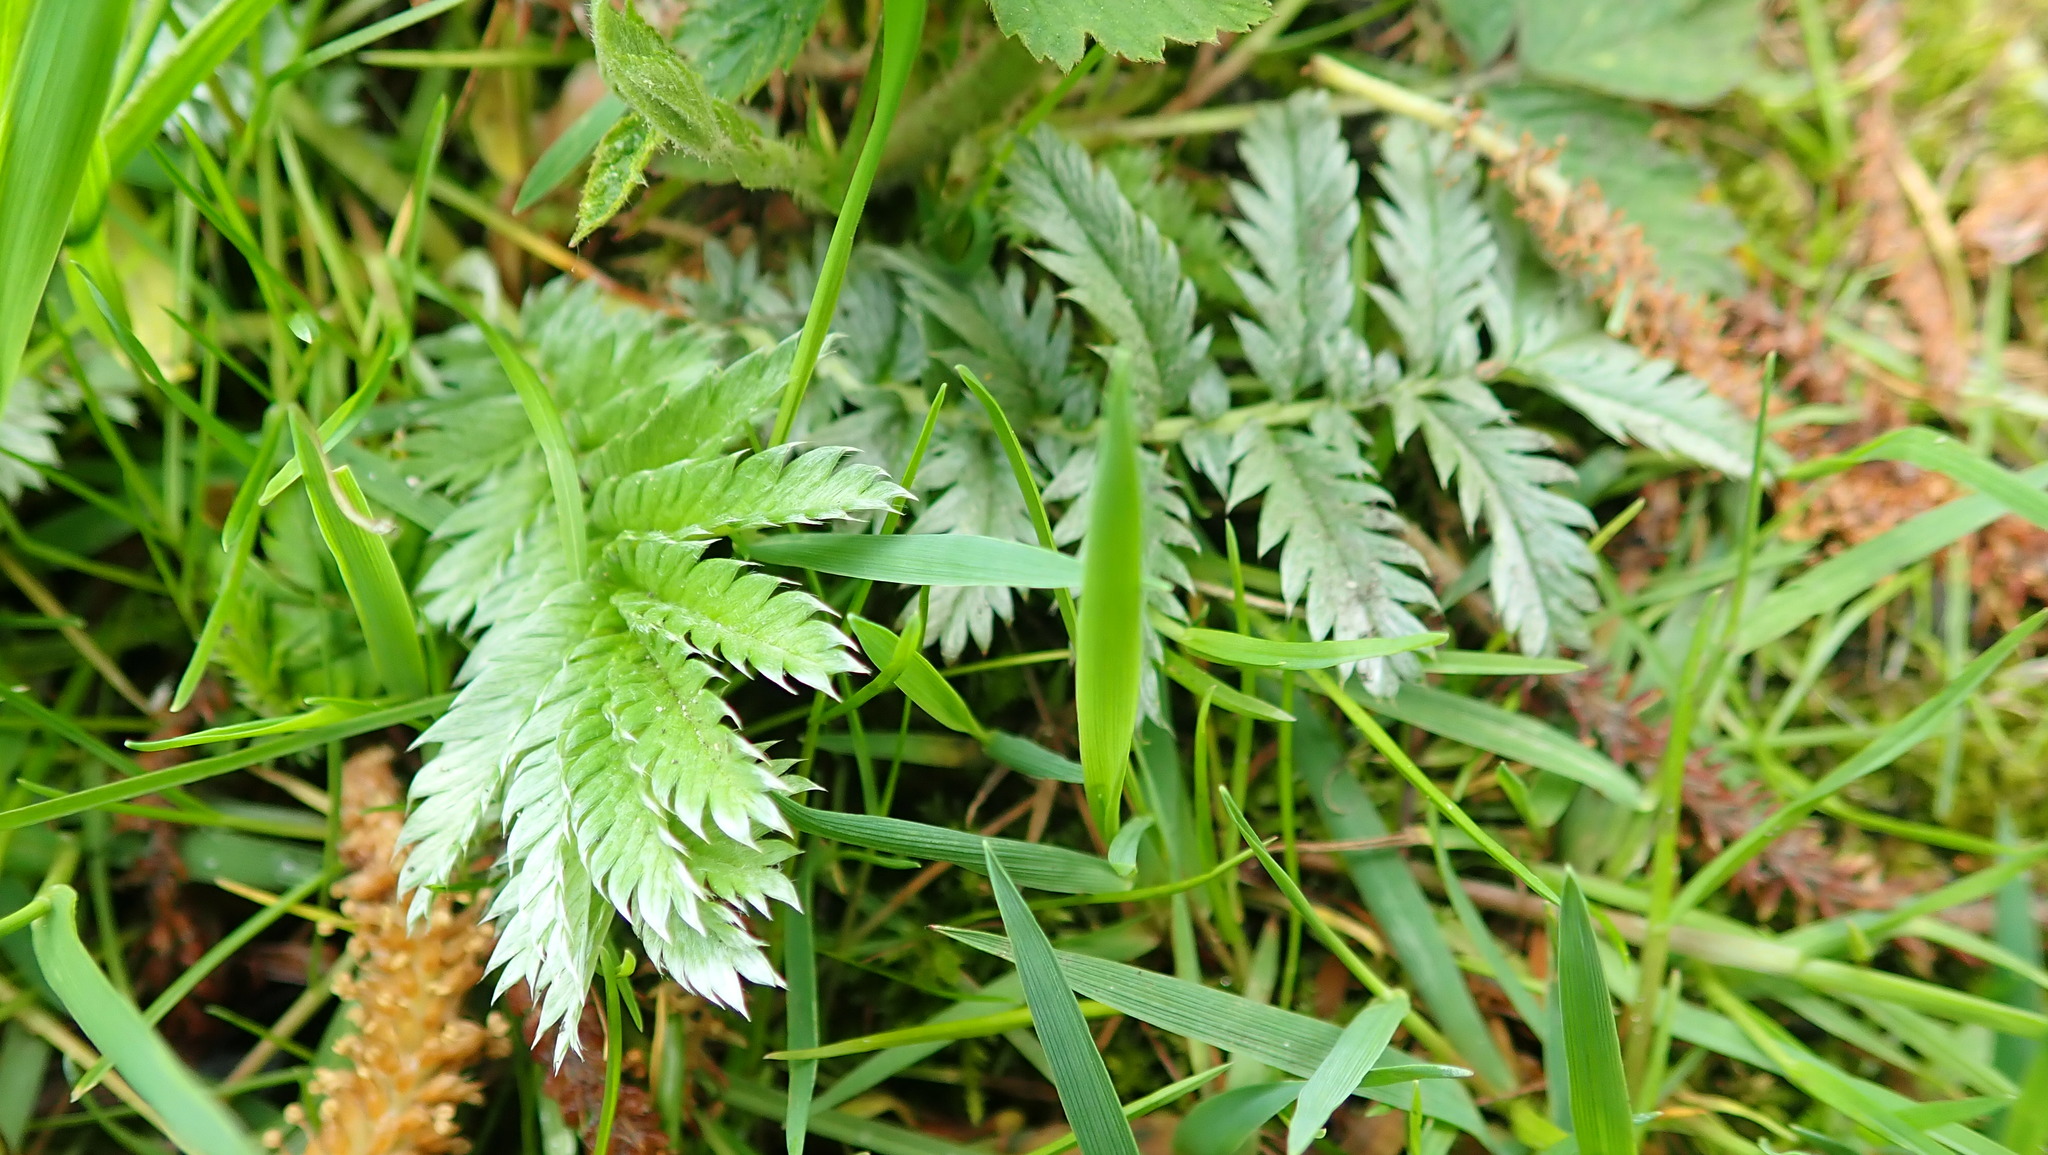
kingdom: Plantae
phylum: Tracheophyta
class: Magnoliopsida
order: Rosales
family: Rosaceae
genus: Argentina
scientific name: Argentina anserina
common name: Common silverweed
